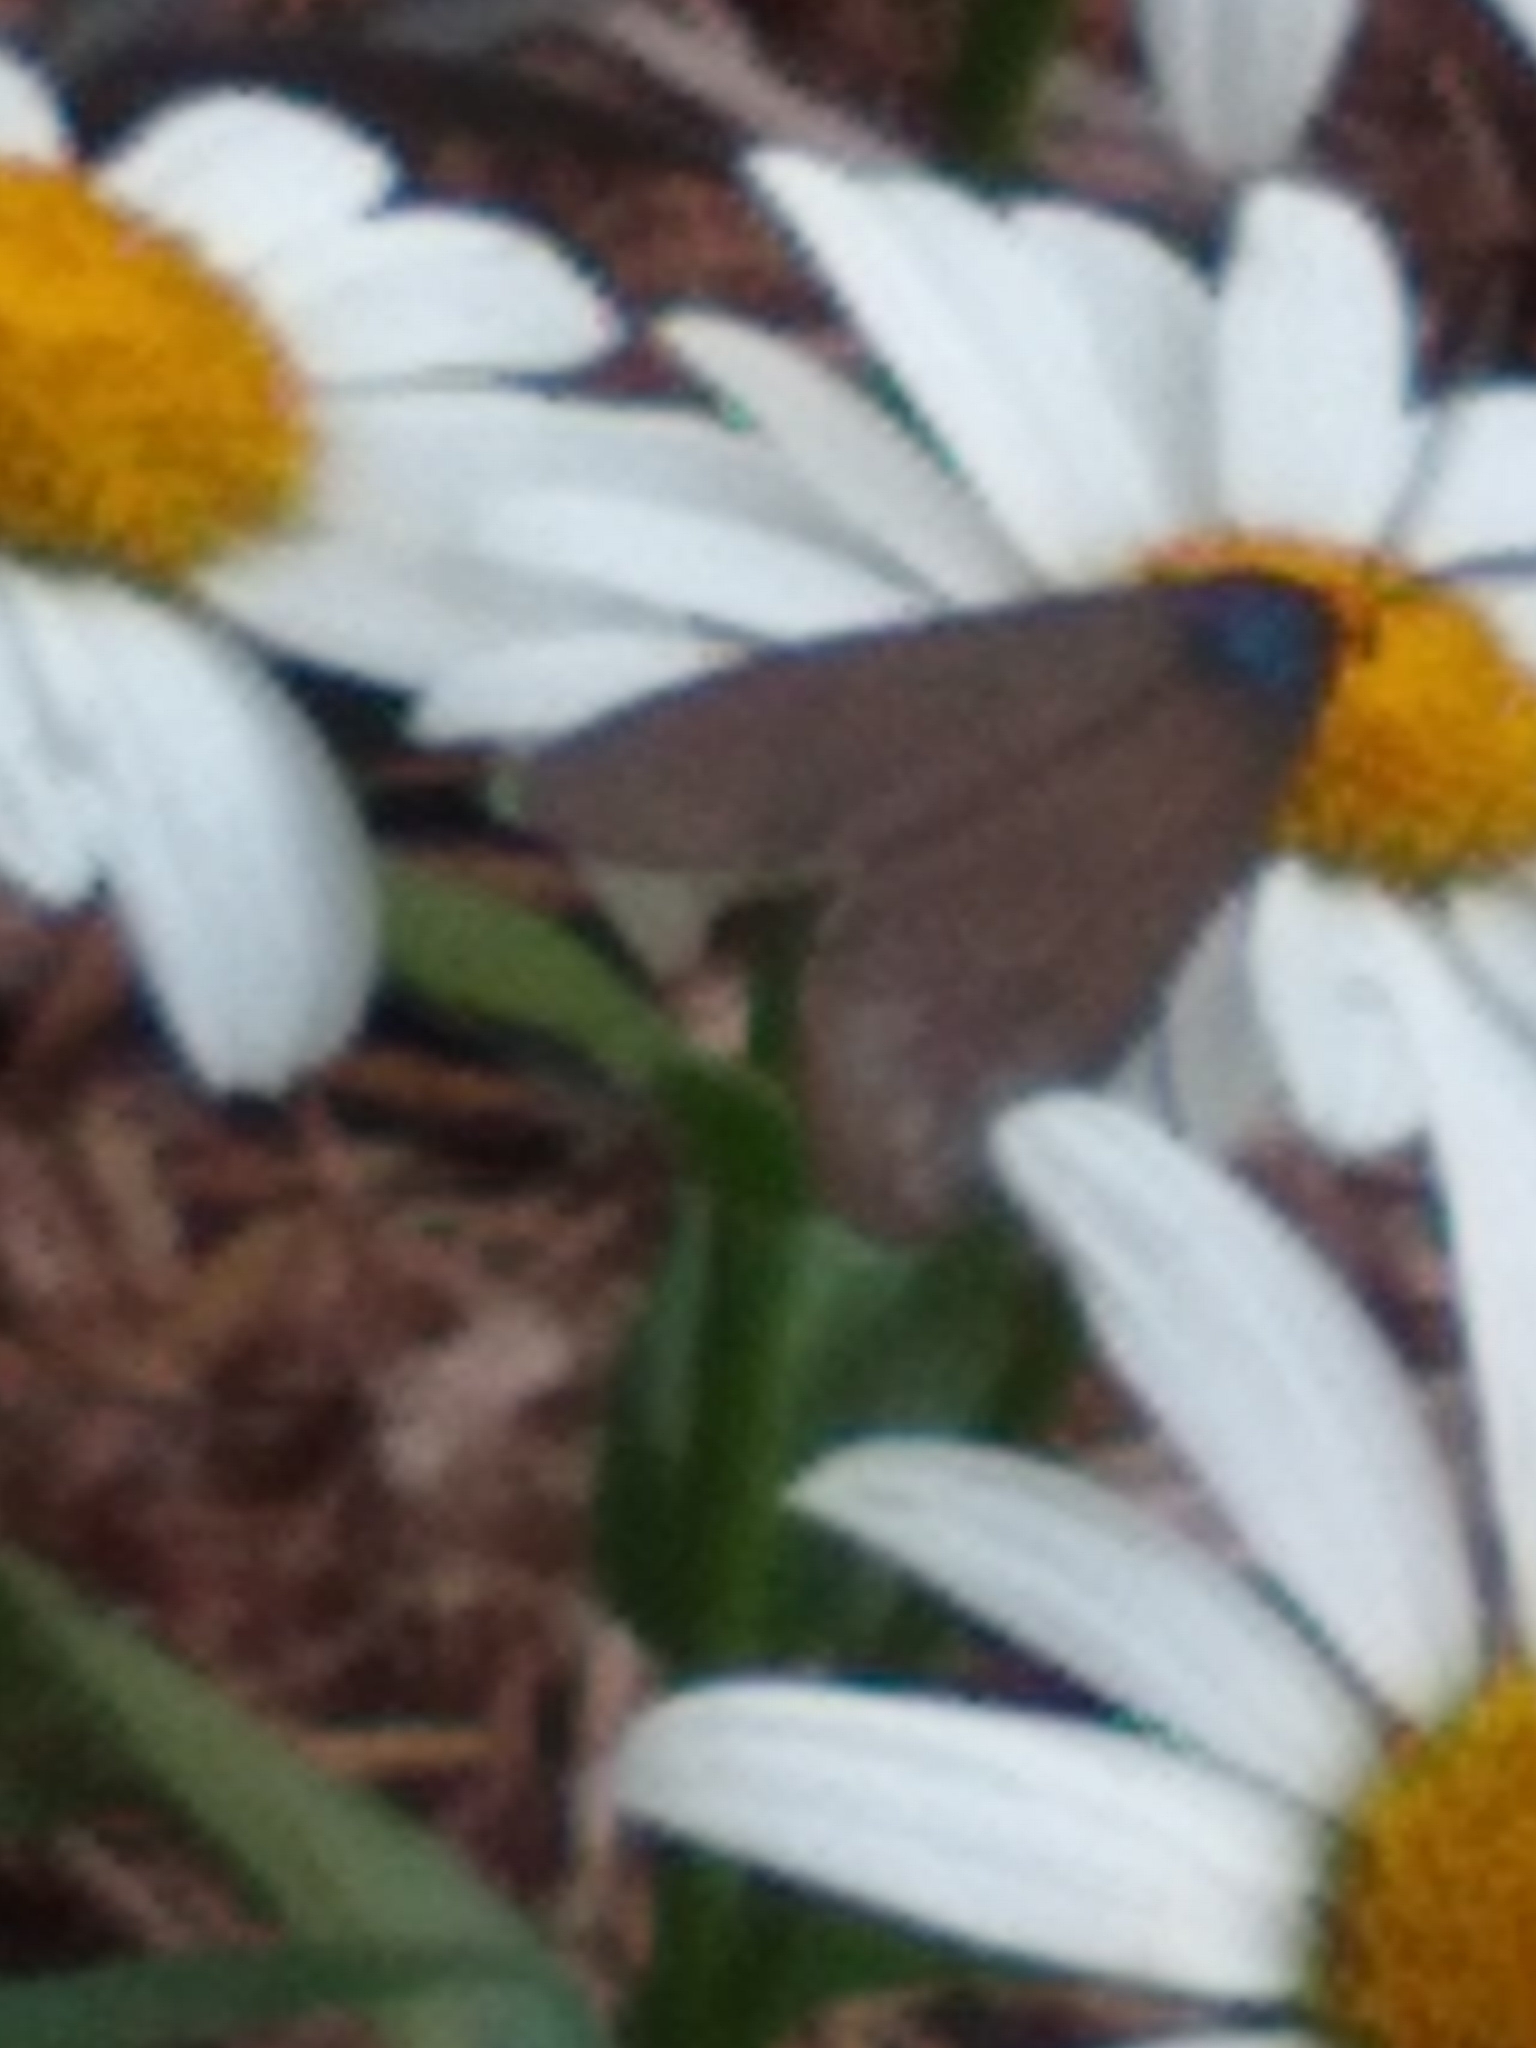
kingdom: Animalia
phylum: Arthropoda
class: Insecta
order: Lepidoptera
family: Erebidae
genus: Ctenucha
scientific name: Ctenucha virginica
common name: Virginia ctenucha moth
